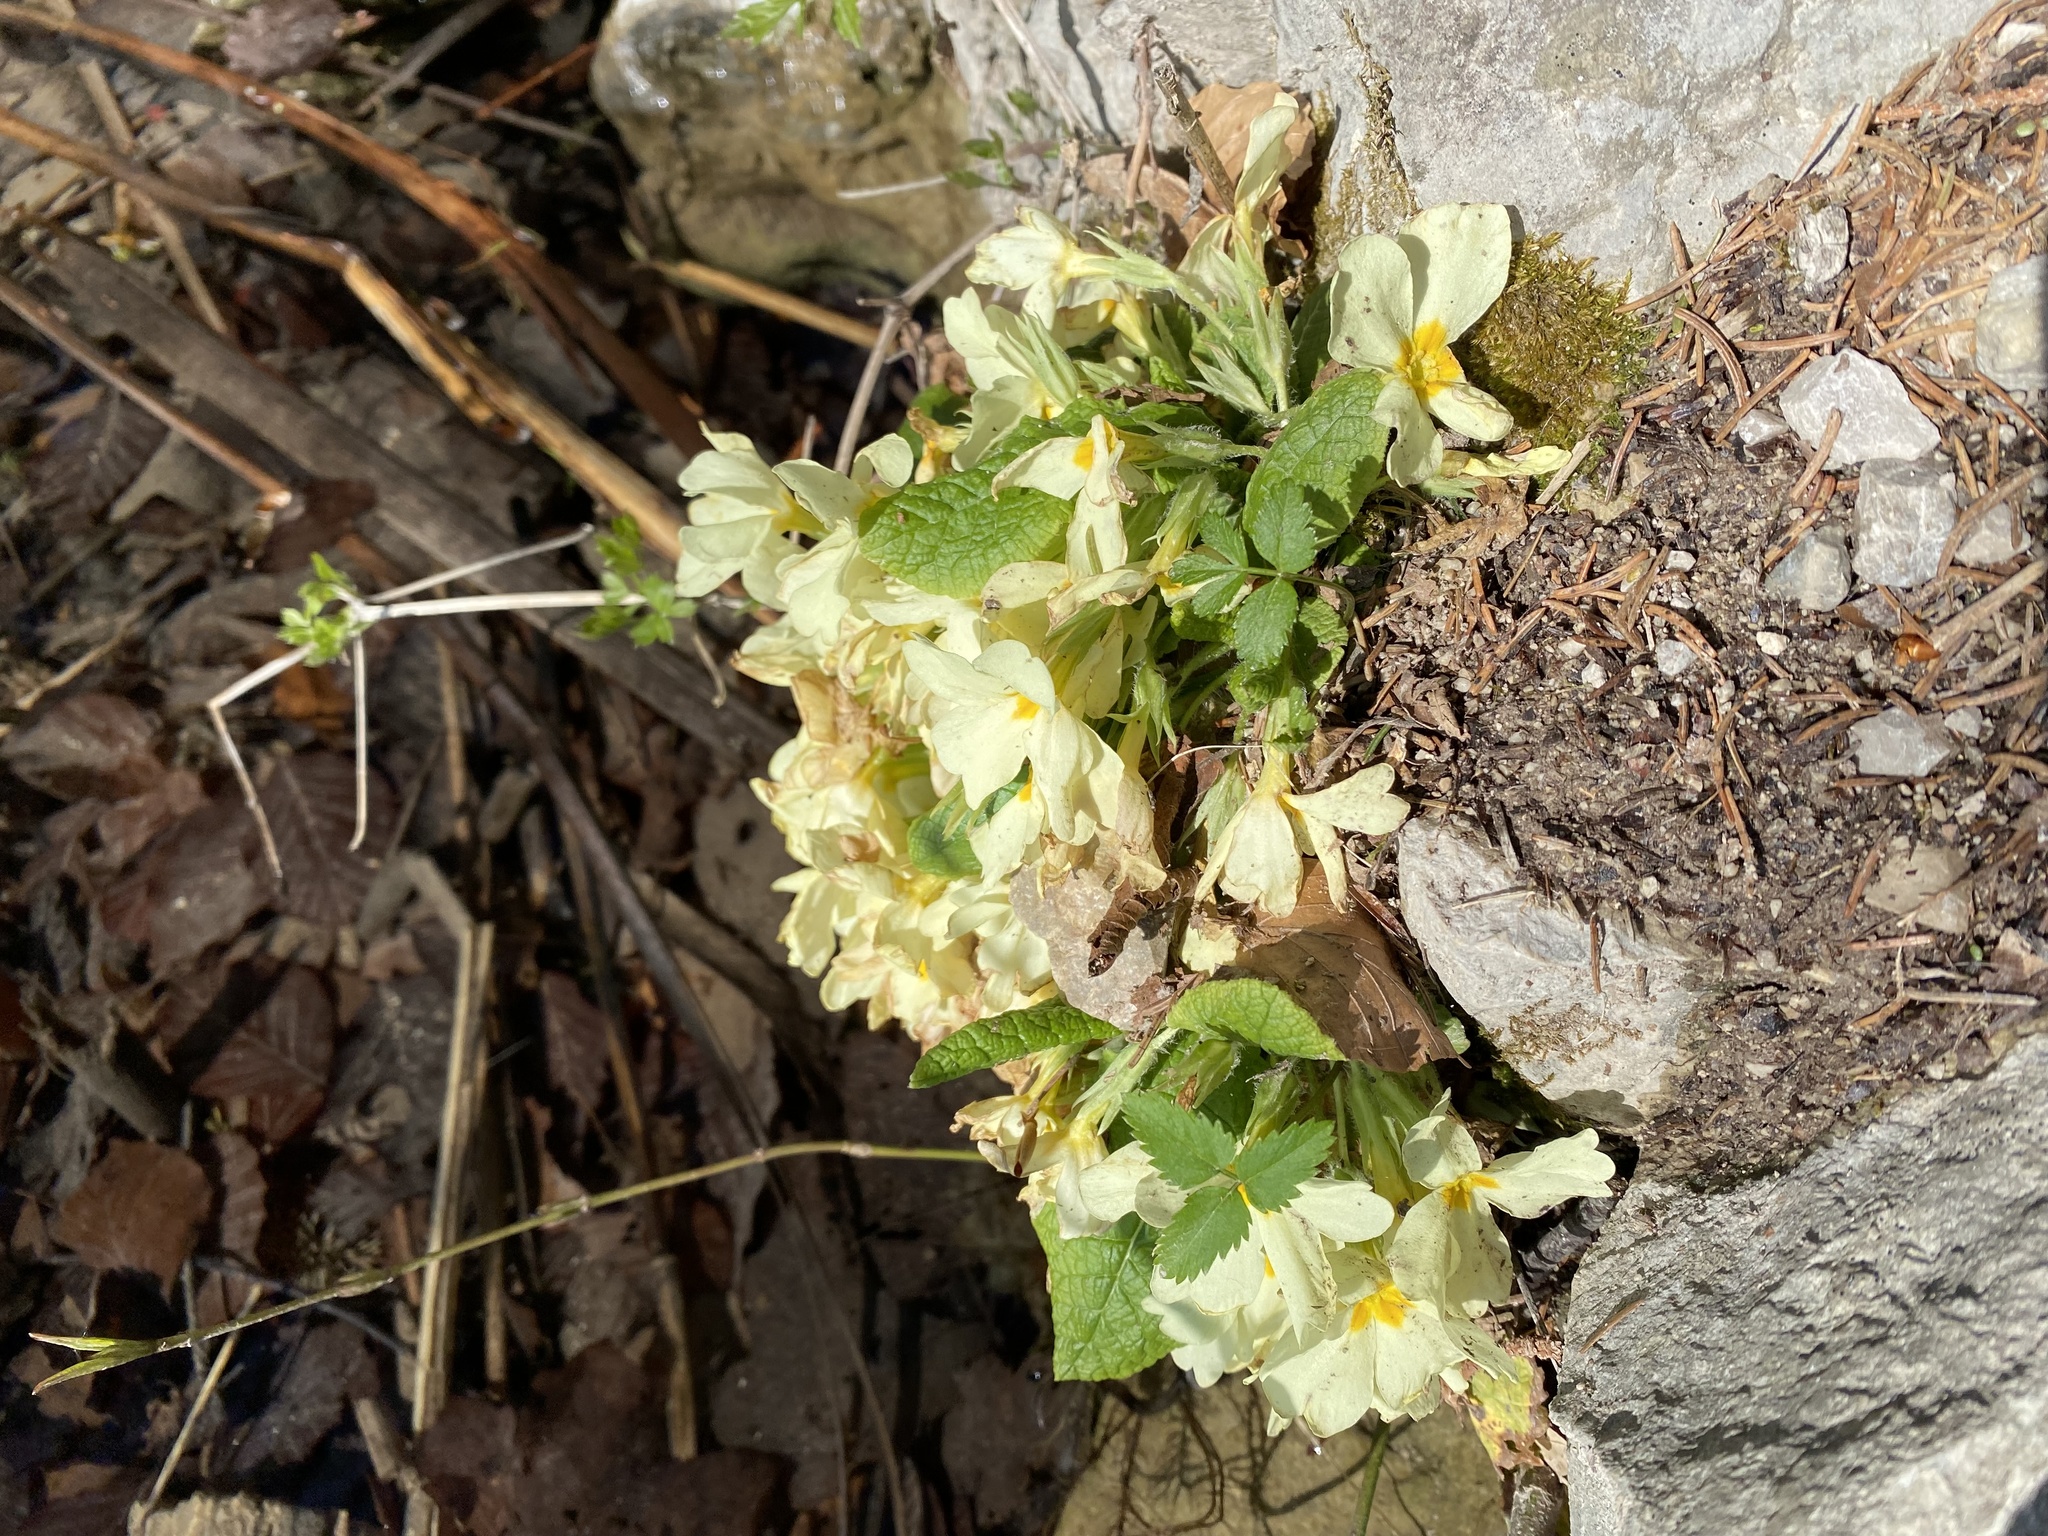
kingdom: Plantae
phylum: Tracheophyta
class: Magnoliopsida
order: Ericales
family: Primulaceae
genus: Primula
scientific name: Primula vulgaris
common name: Primrose
